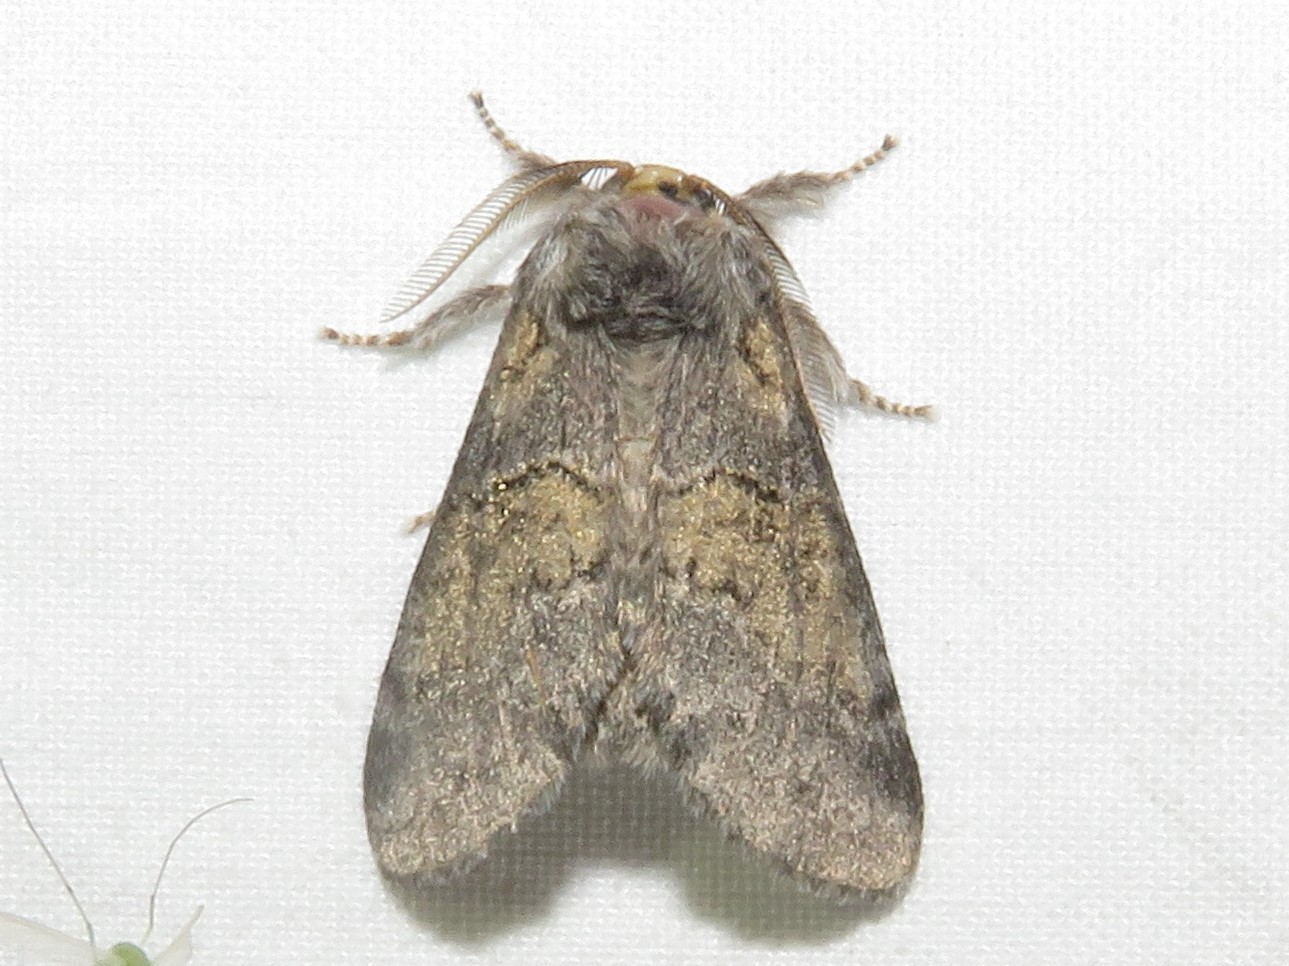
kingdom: Animalia
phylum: Arthropoda
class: Insecta
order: Lepidoptera
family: Notodontidae
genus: Gluphisia
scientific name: Gluphisia septentrionis
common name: Common gluphisia
